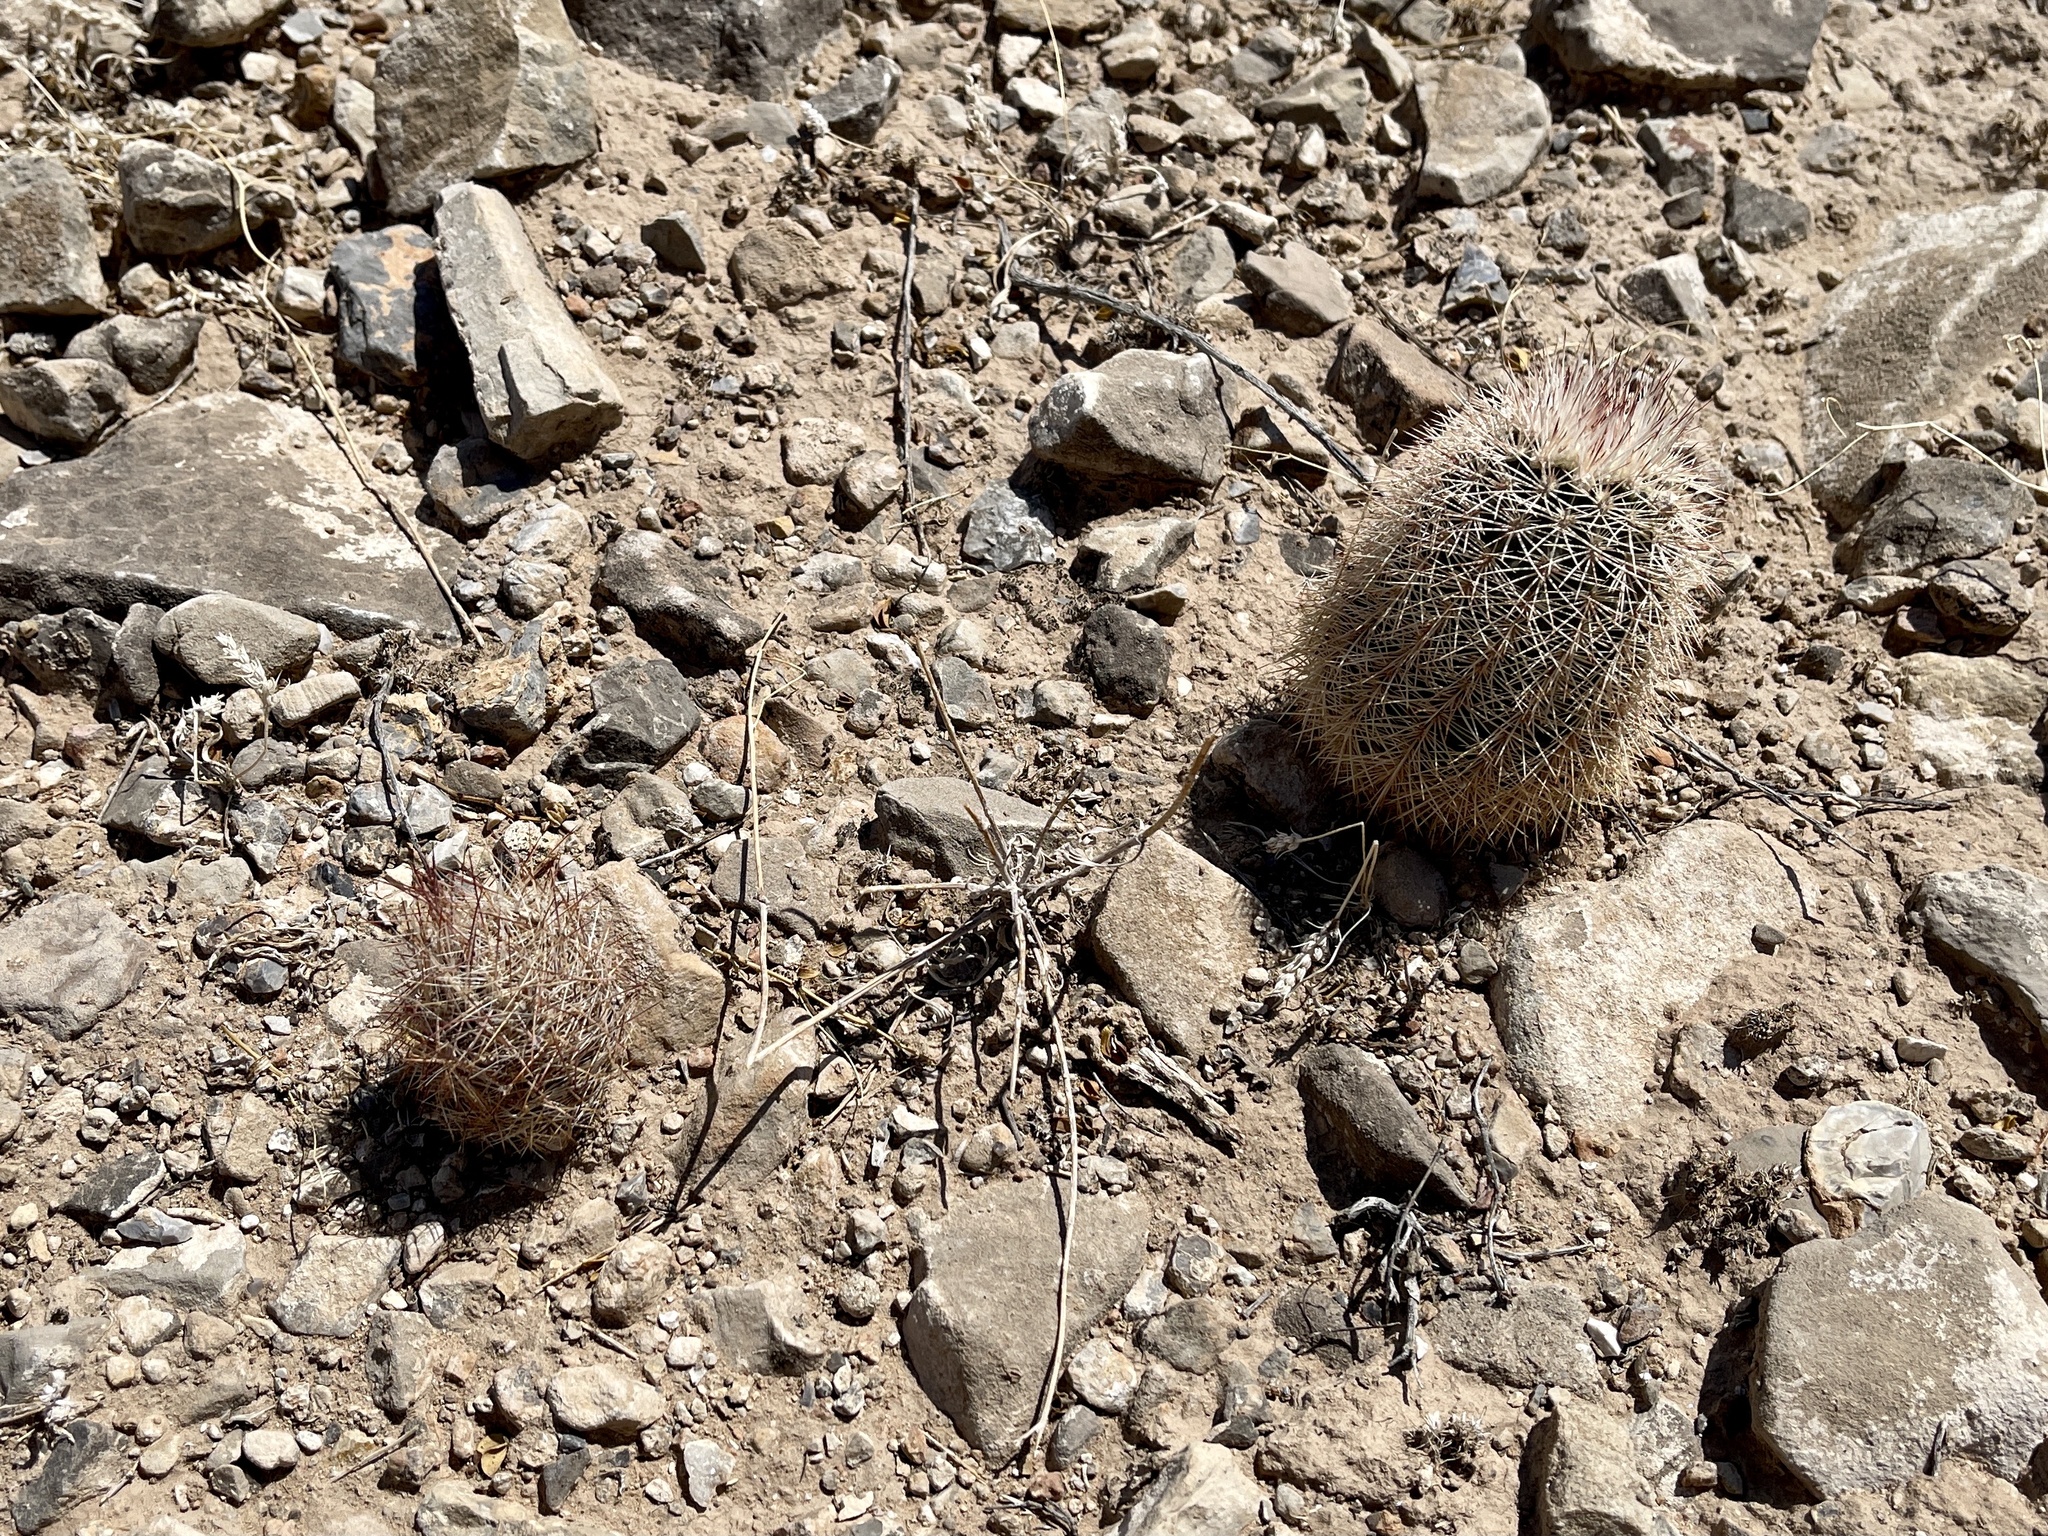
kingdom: Plantae
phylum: Tracheophyta
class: Magnoliopsida
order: Caryophyllales
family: Cactaceae
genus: Echinocereus
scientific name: Echinocereus dasyacanthus
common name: Spiny hedgehog cactus
